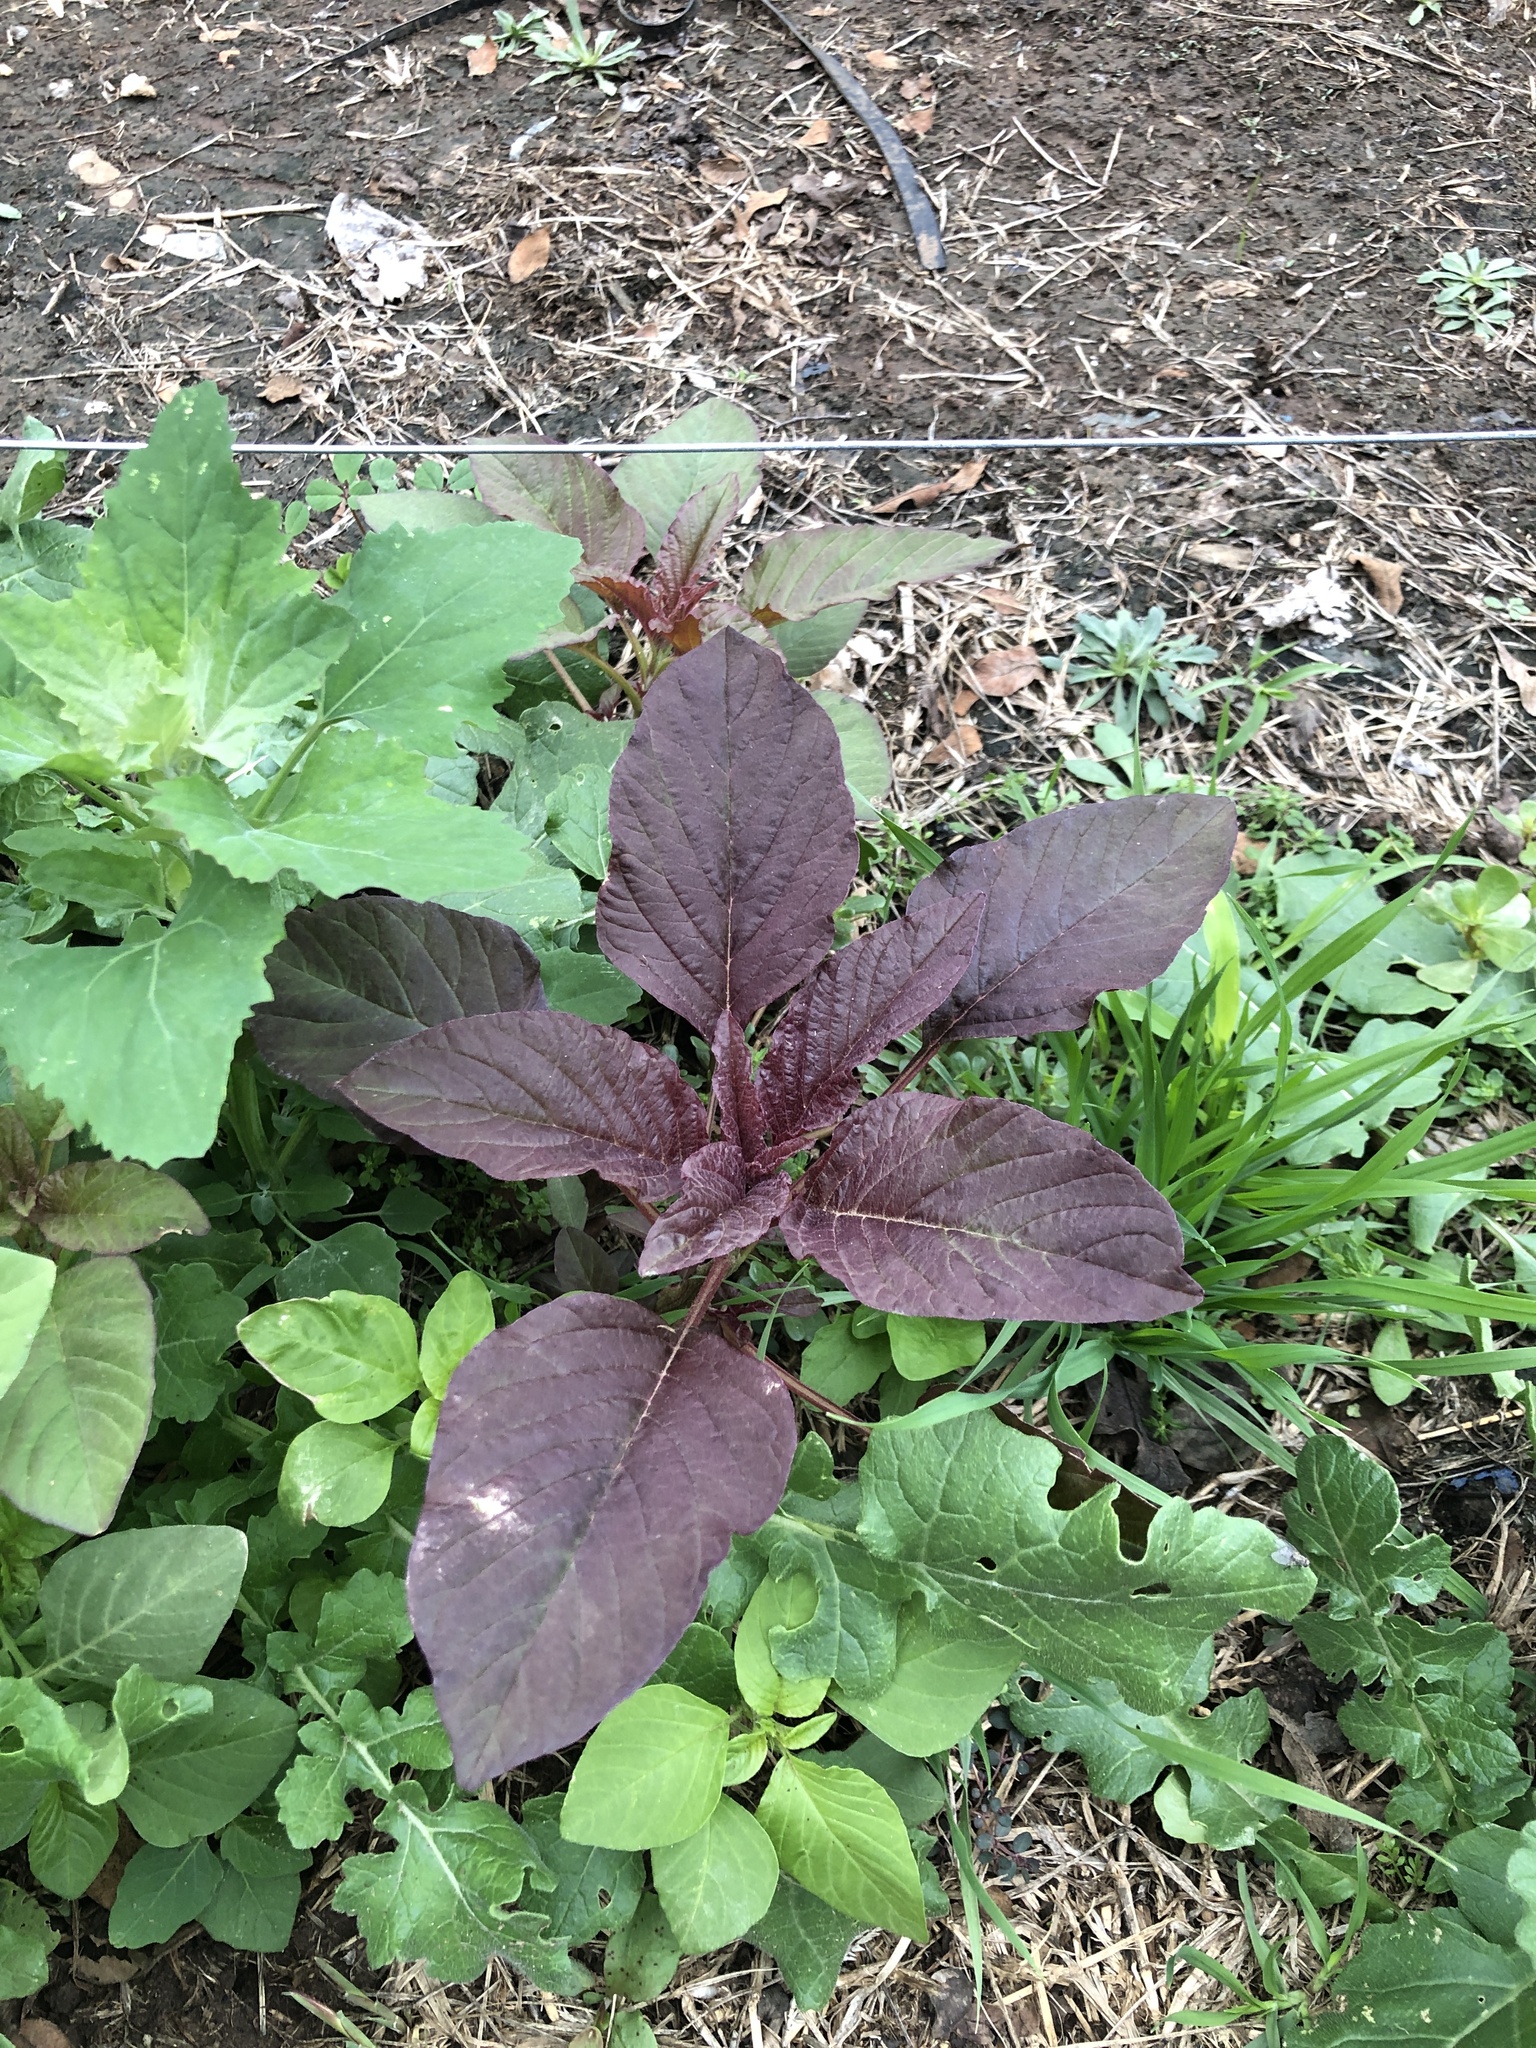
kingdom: Plantae
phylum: Tracheophyta
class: Magnoliopsida
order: Caryophyllales
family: Amaranthaceae
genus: Amaranthus
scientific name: Amaranthus cruentus
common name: Purple amaranth
